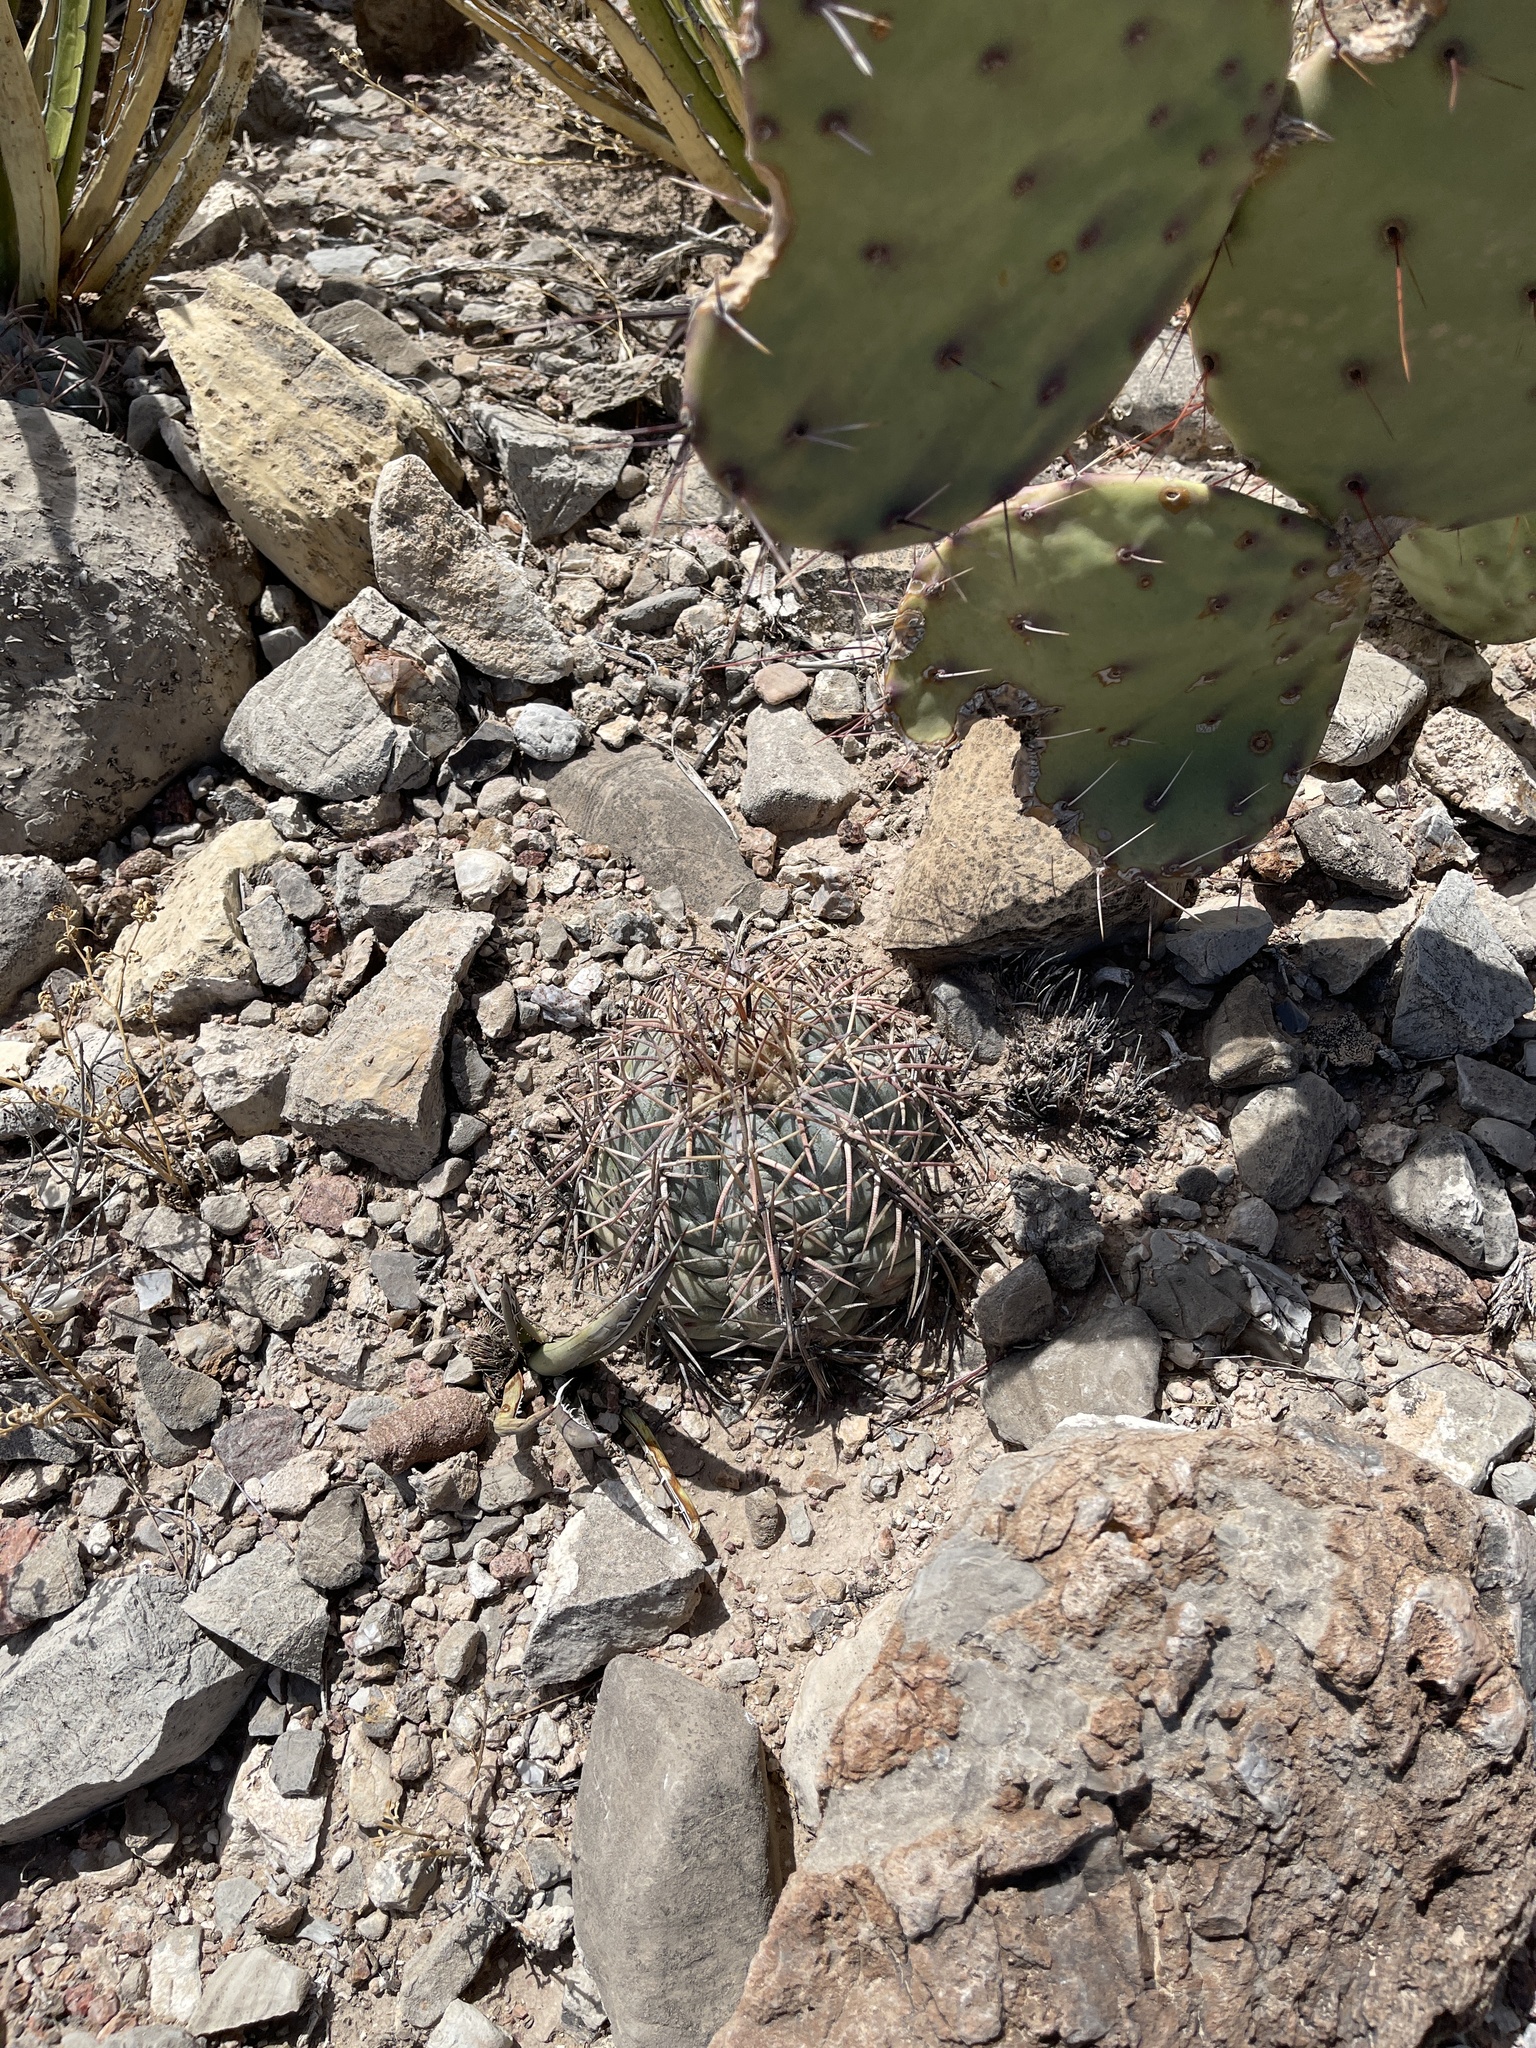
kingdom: Plantae
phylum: Tracheophyta
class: Magnoliopsida
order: Caryophyllales
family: Cactaceae
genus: Echinocactus
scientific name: Echinocactus horizonthalonius
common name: Devilshead
